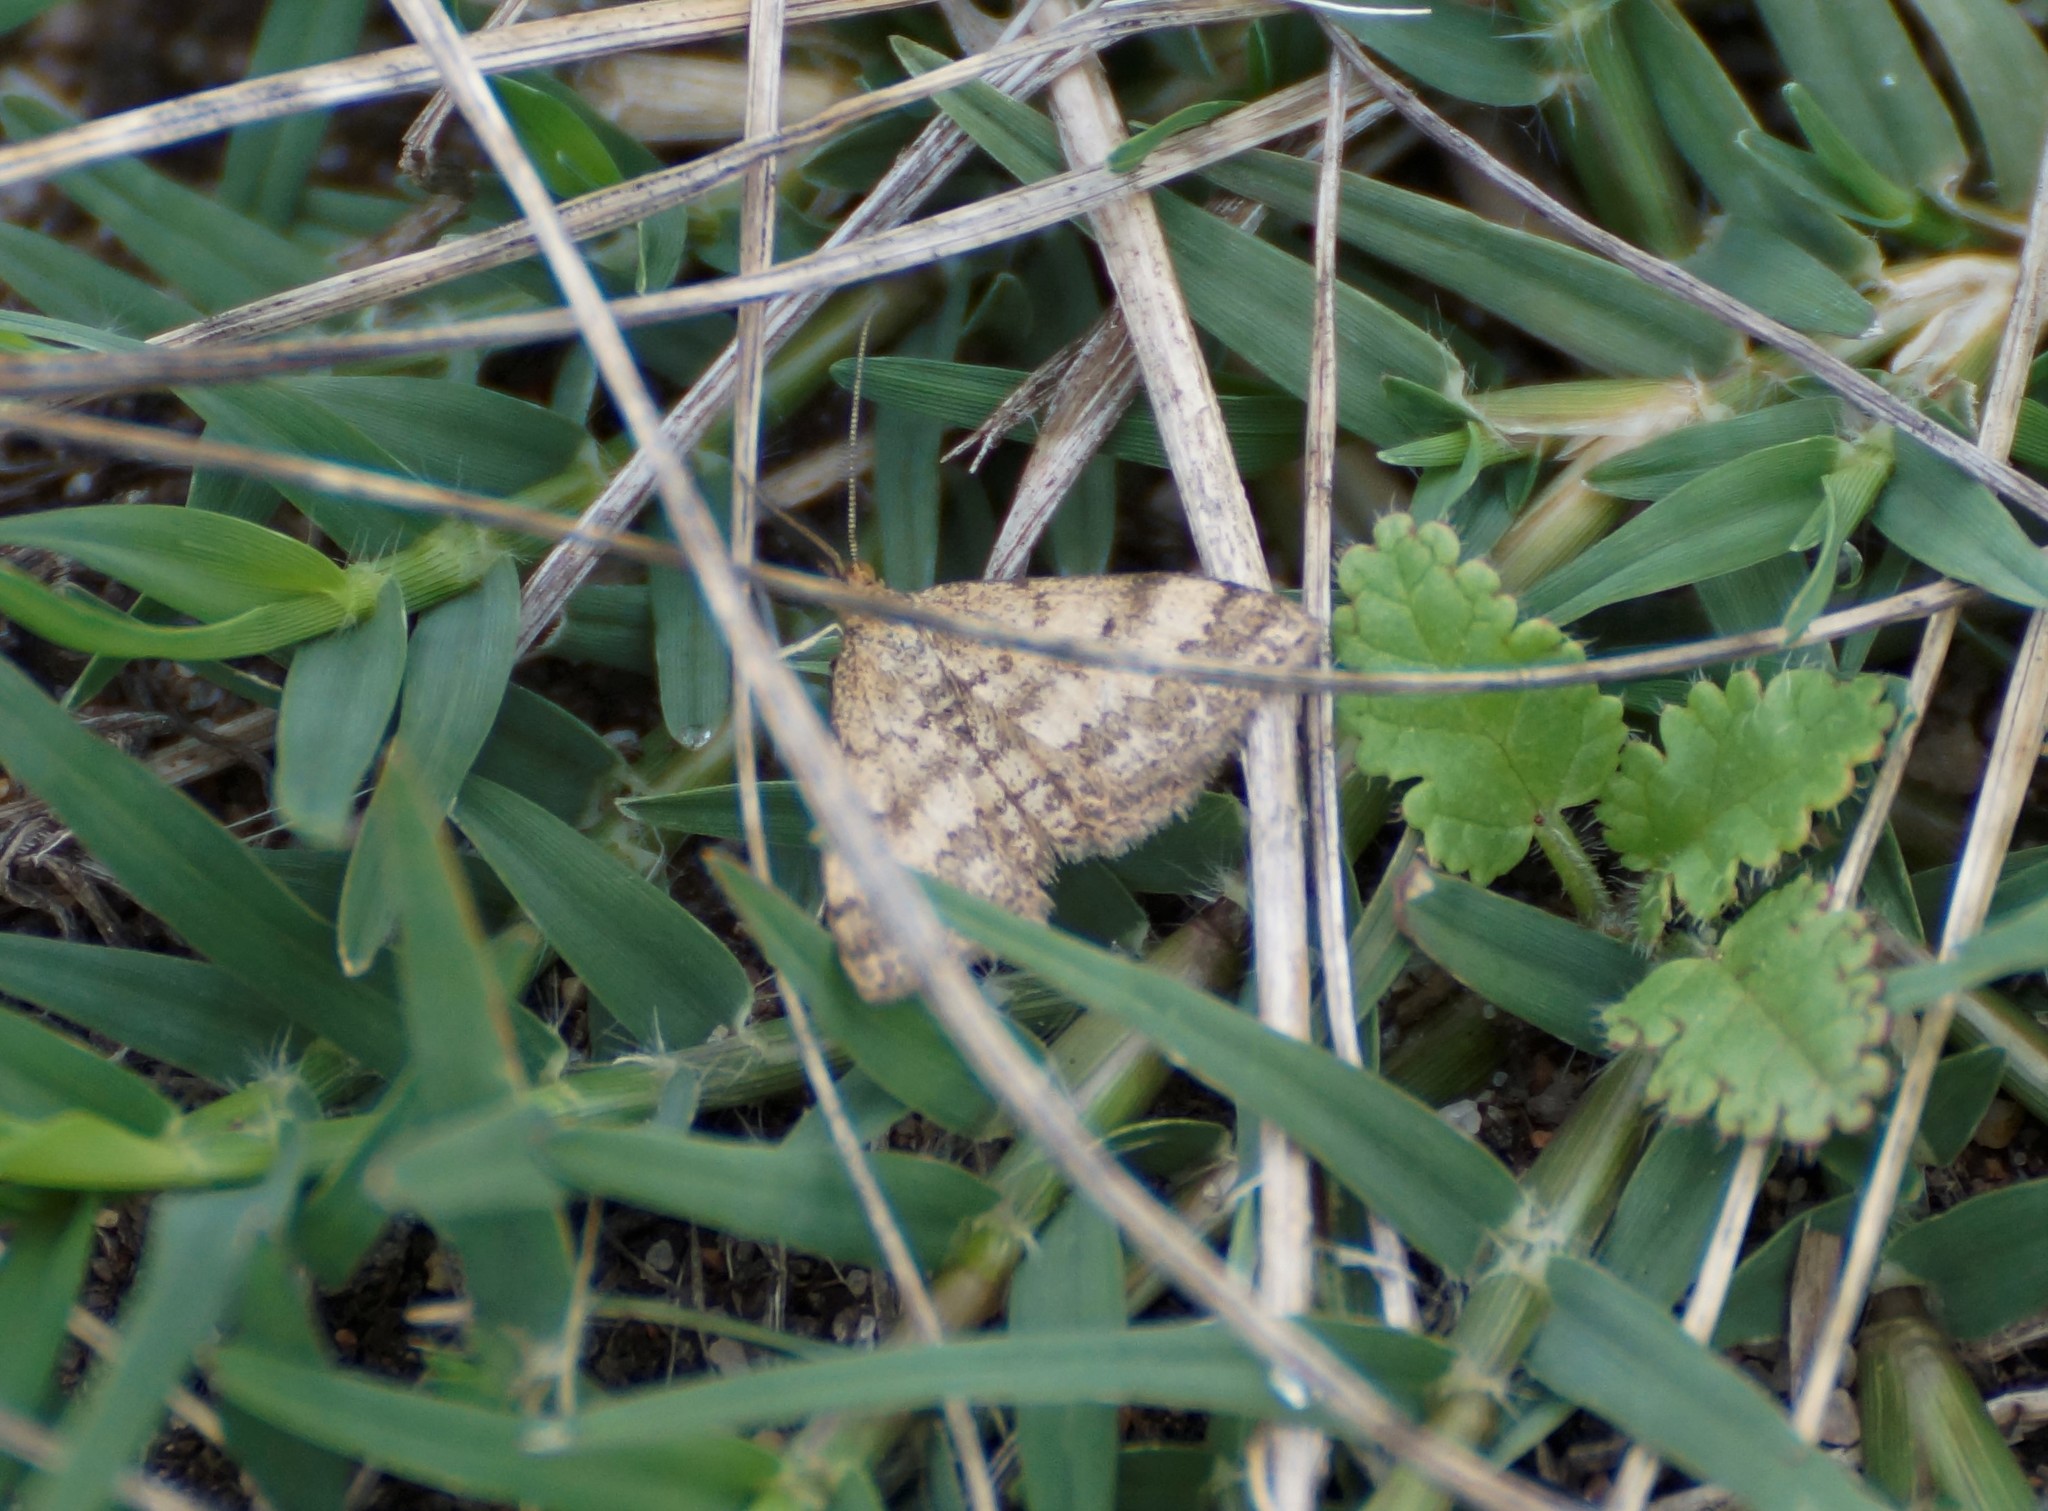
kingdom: Animalia
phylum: Arthropoda
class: Insecta
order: Lepidoptera
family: Geometridae
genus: Scopula
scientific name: Scopula rubraria
